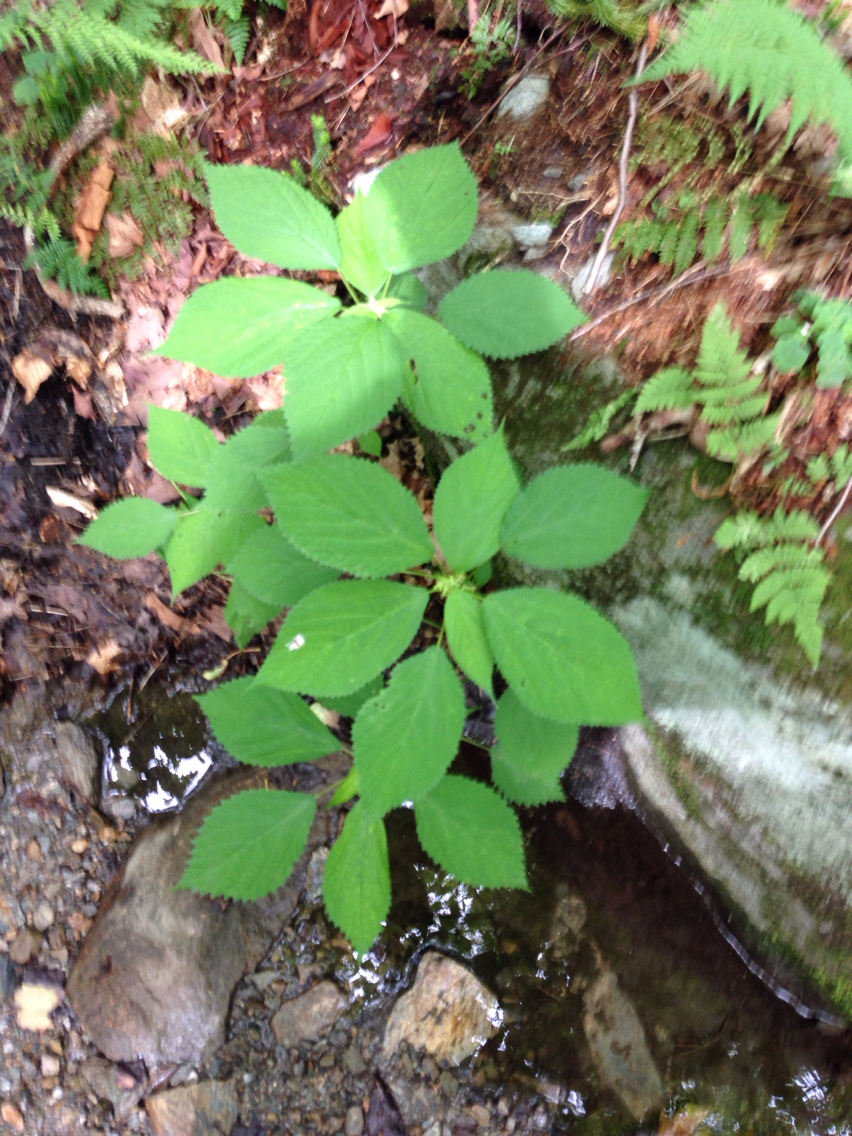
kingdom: Plantae
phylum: Tracheophyta
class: Magnoliopsida
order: Rosales
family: Urticaceae
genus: Laportea
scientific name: Laportea canadensis
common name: Canada nettle
